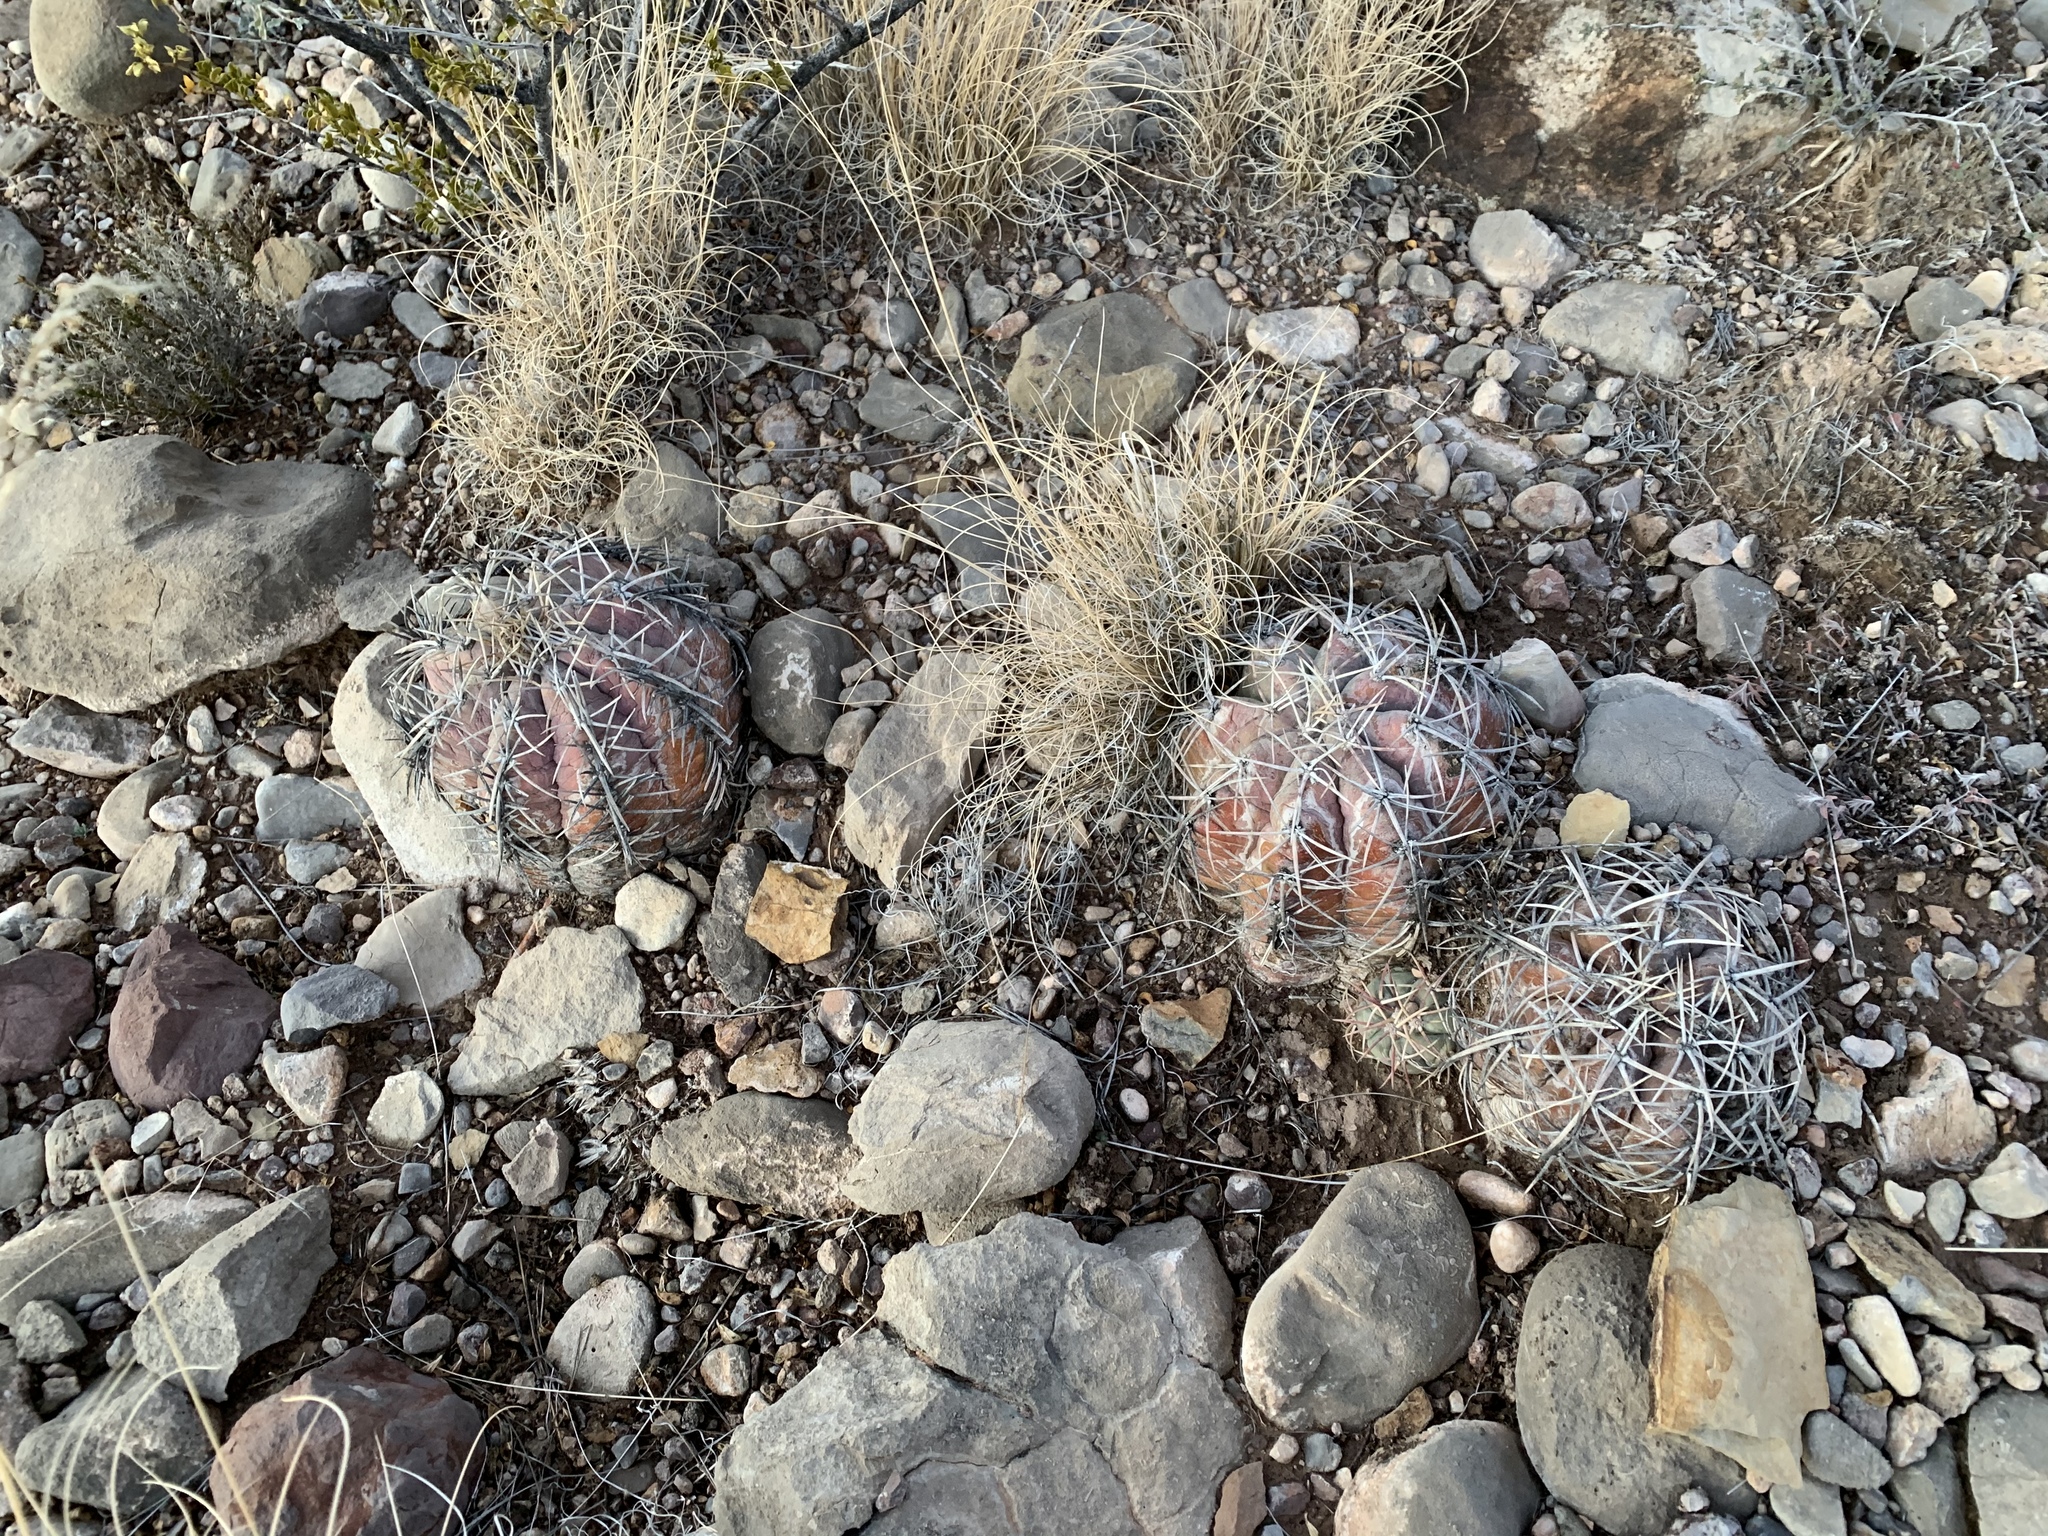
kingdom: Plantae
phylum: Tracheophyta
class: Magnoliopsida
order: Caryophyllales
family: Cactaceae
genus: Echinocactus
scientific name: Echinocactus horizonthalonius
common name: Devilshead
